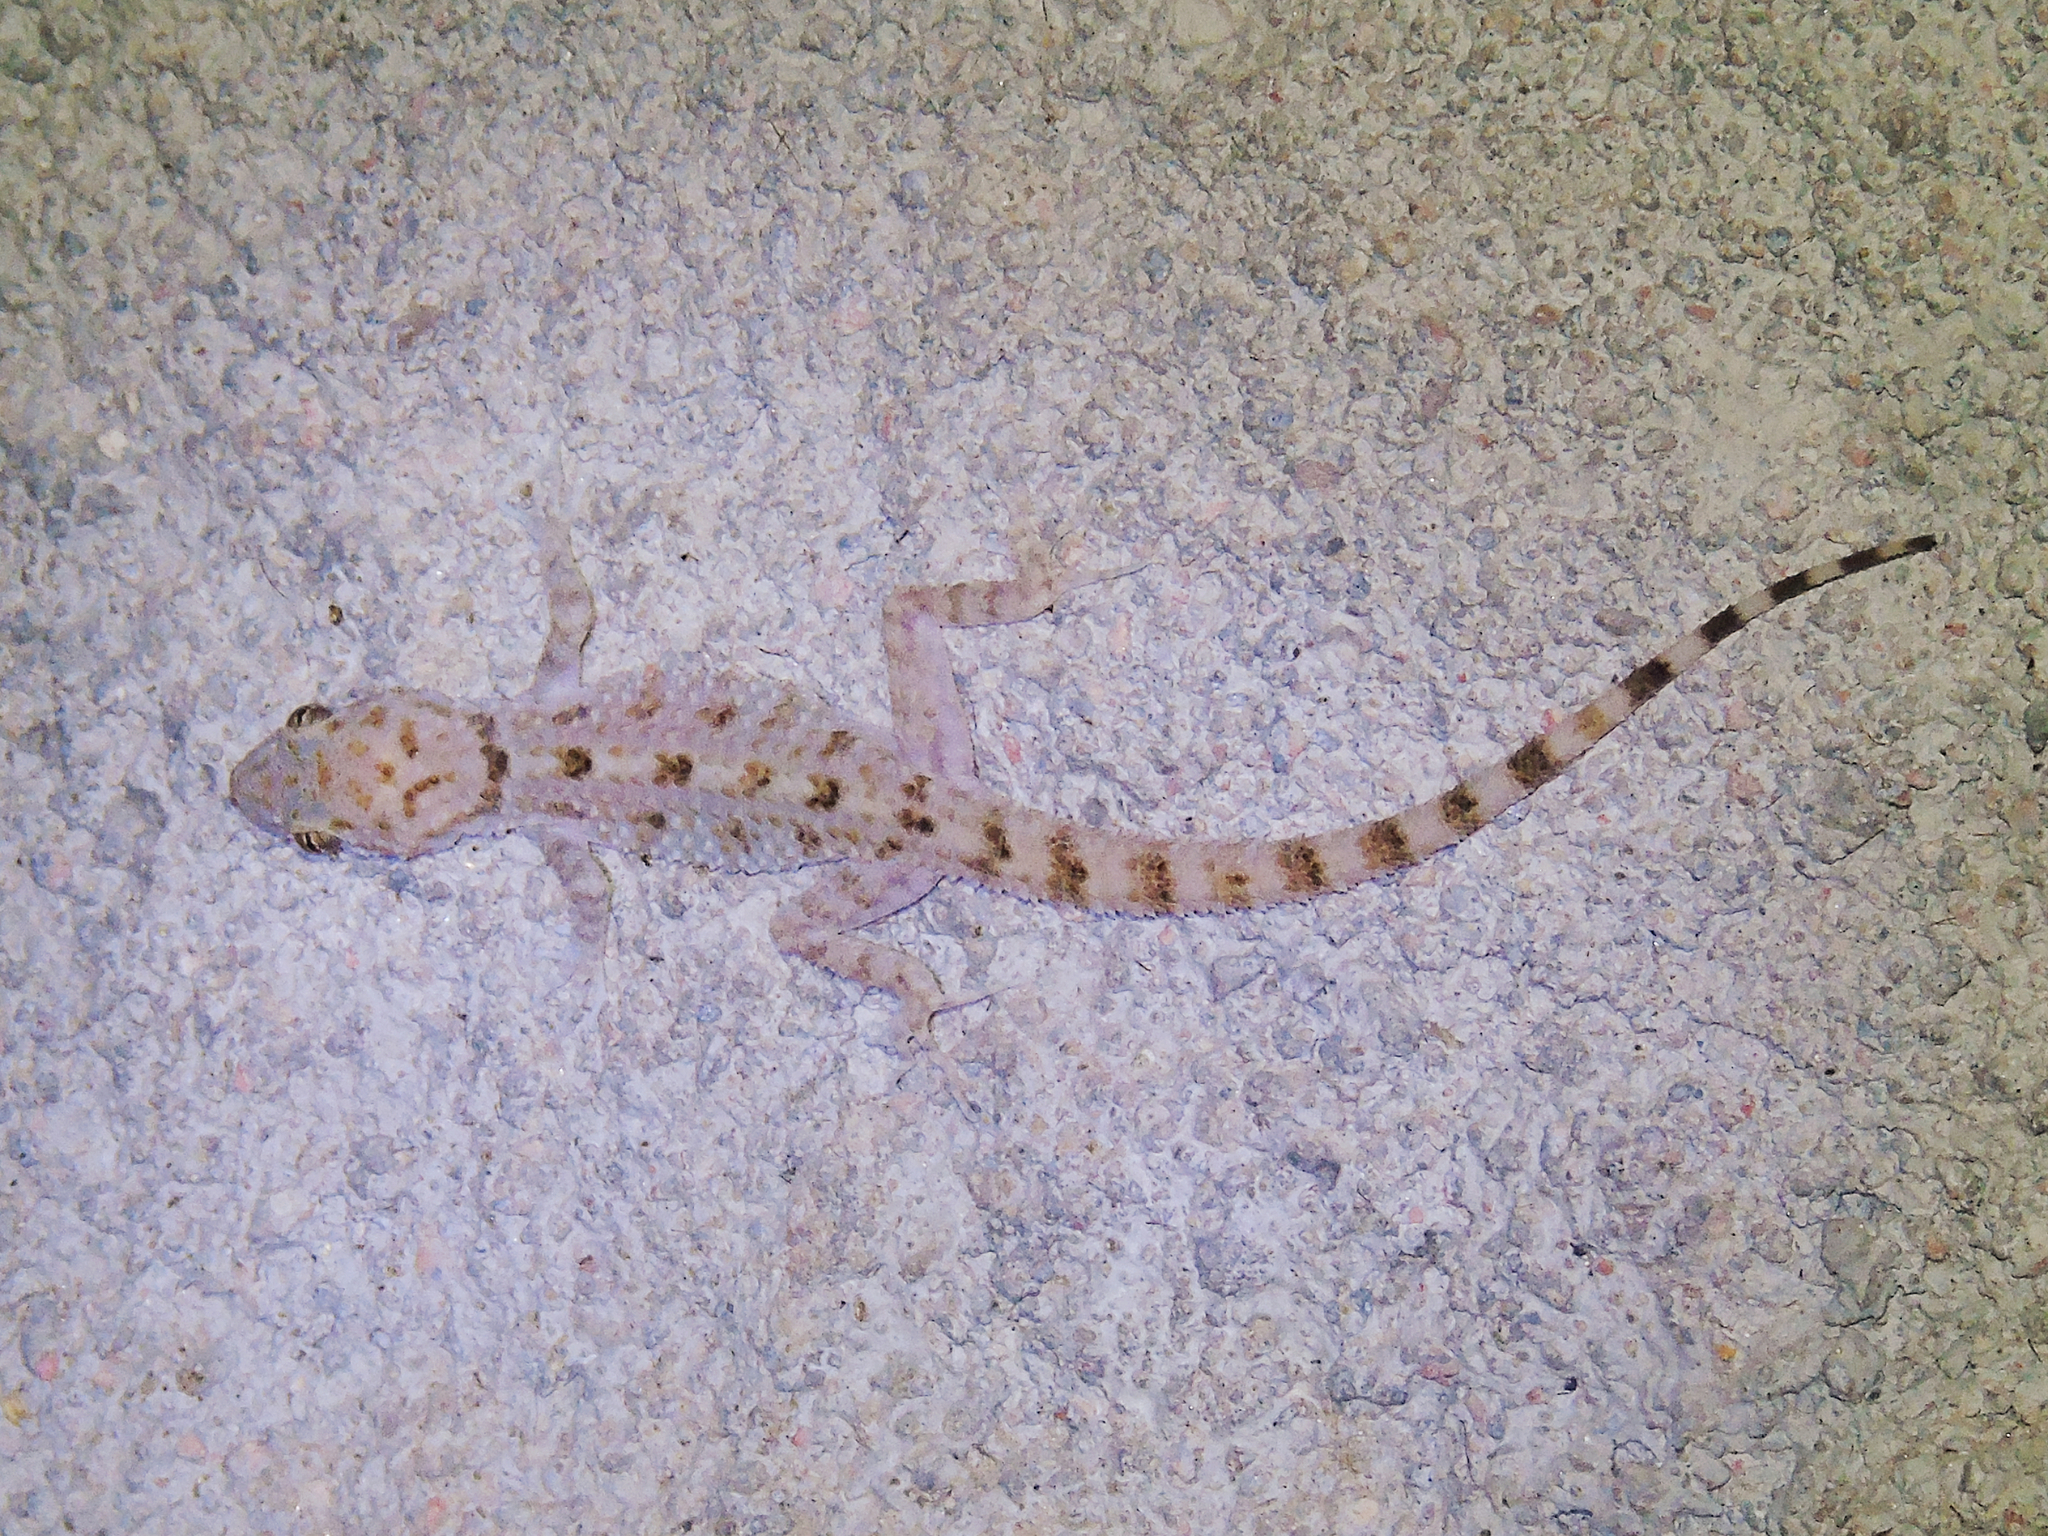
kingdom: Animalia
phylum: Chordata
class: Squamata
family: Gekkonidae
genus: Cyrtopodion
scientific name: Cyrtopodion scabrum
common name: Rough-tailed gecko
